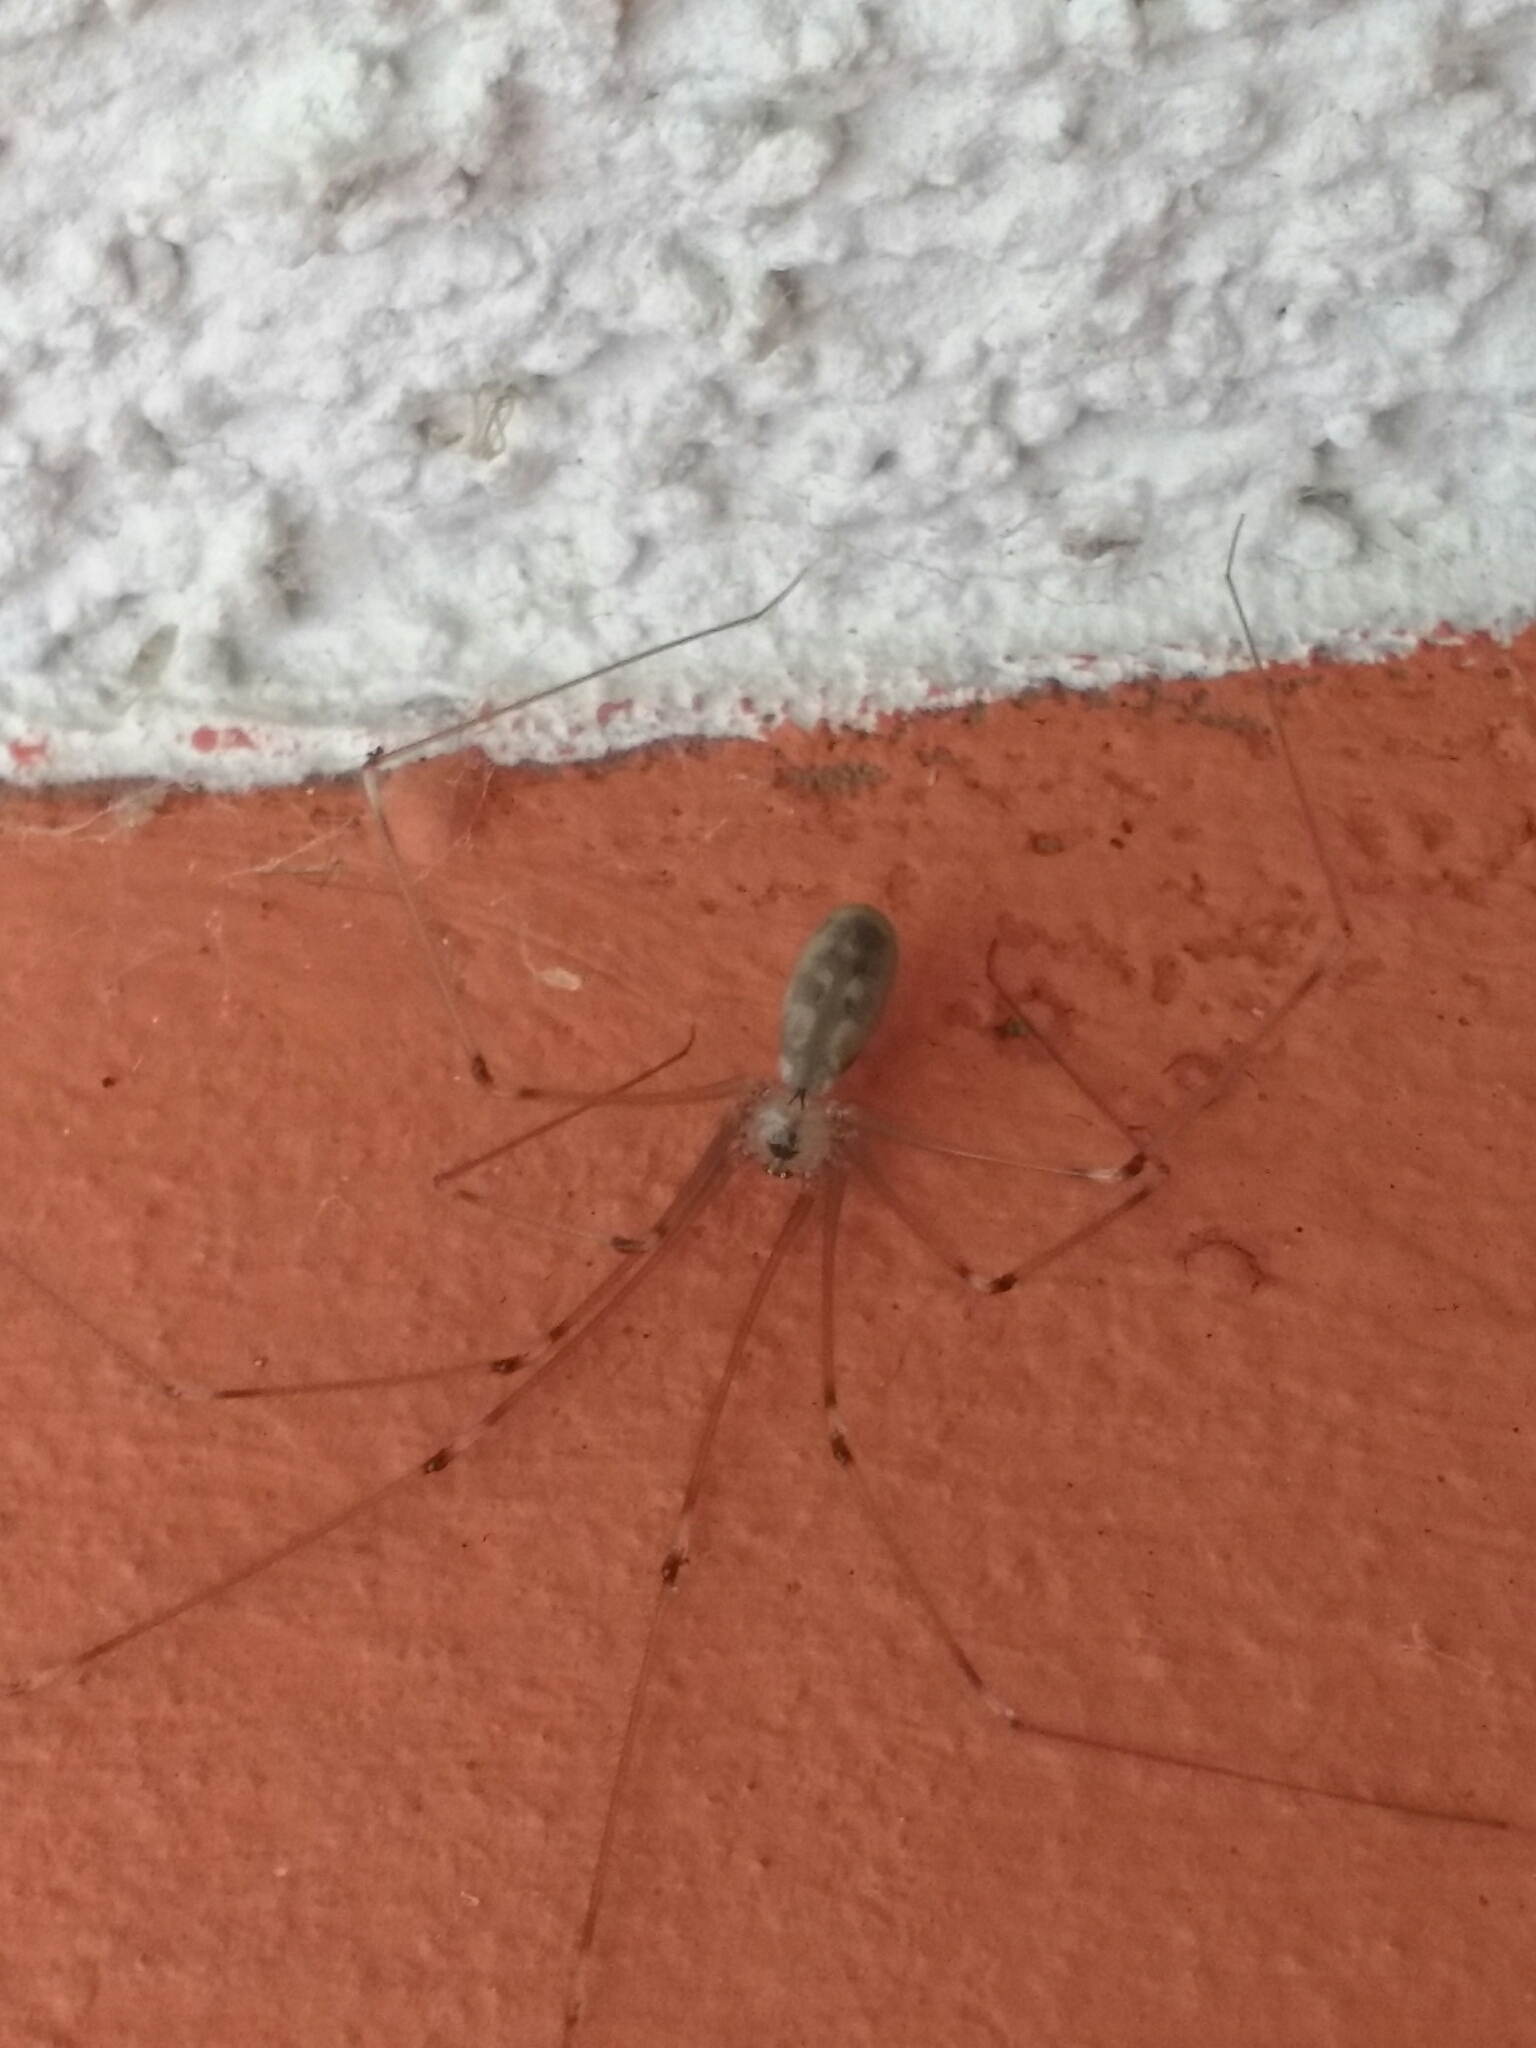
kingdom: Animalia
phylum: Arthropoda
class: Arachnida
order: Araneae
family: Pholcidae
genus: Pholcus
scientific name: Pholcus phalangioides
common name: Longbodied cellar spider
